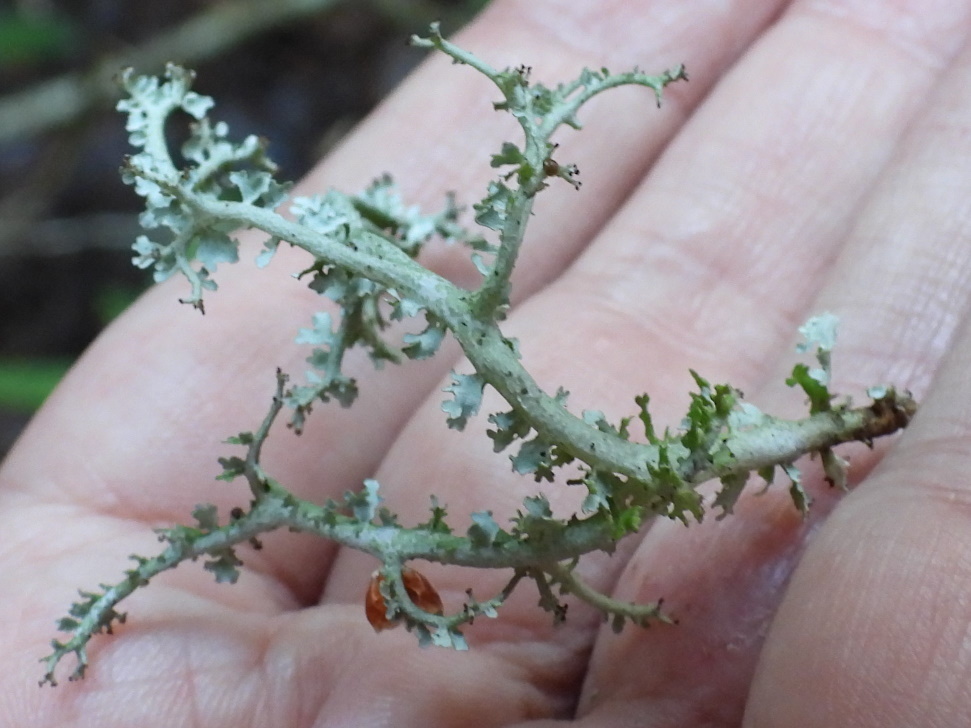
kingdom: Fungi
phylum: Ascomycota
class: Lecanoromycetes
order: Lecanorales
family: Cladoniaceae
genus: Cladonia
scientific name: Cladonia furcata
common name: Many-forked cladonia
